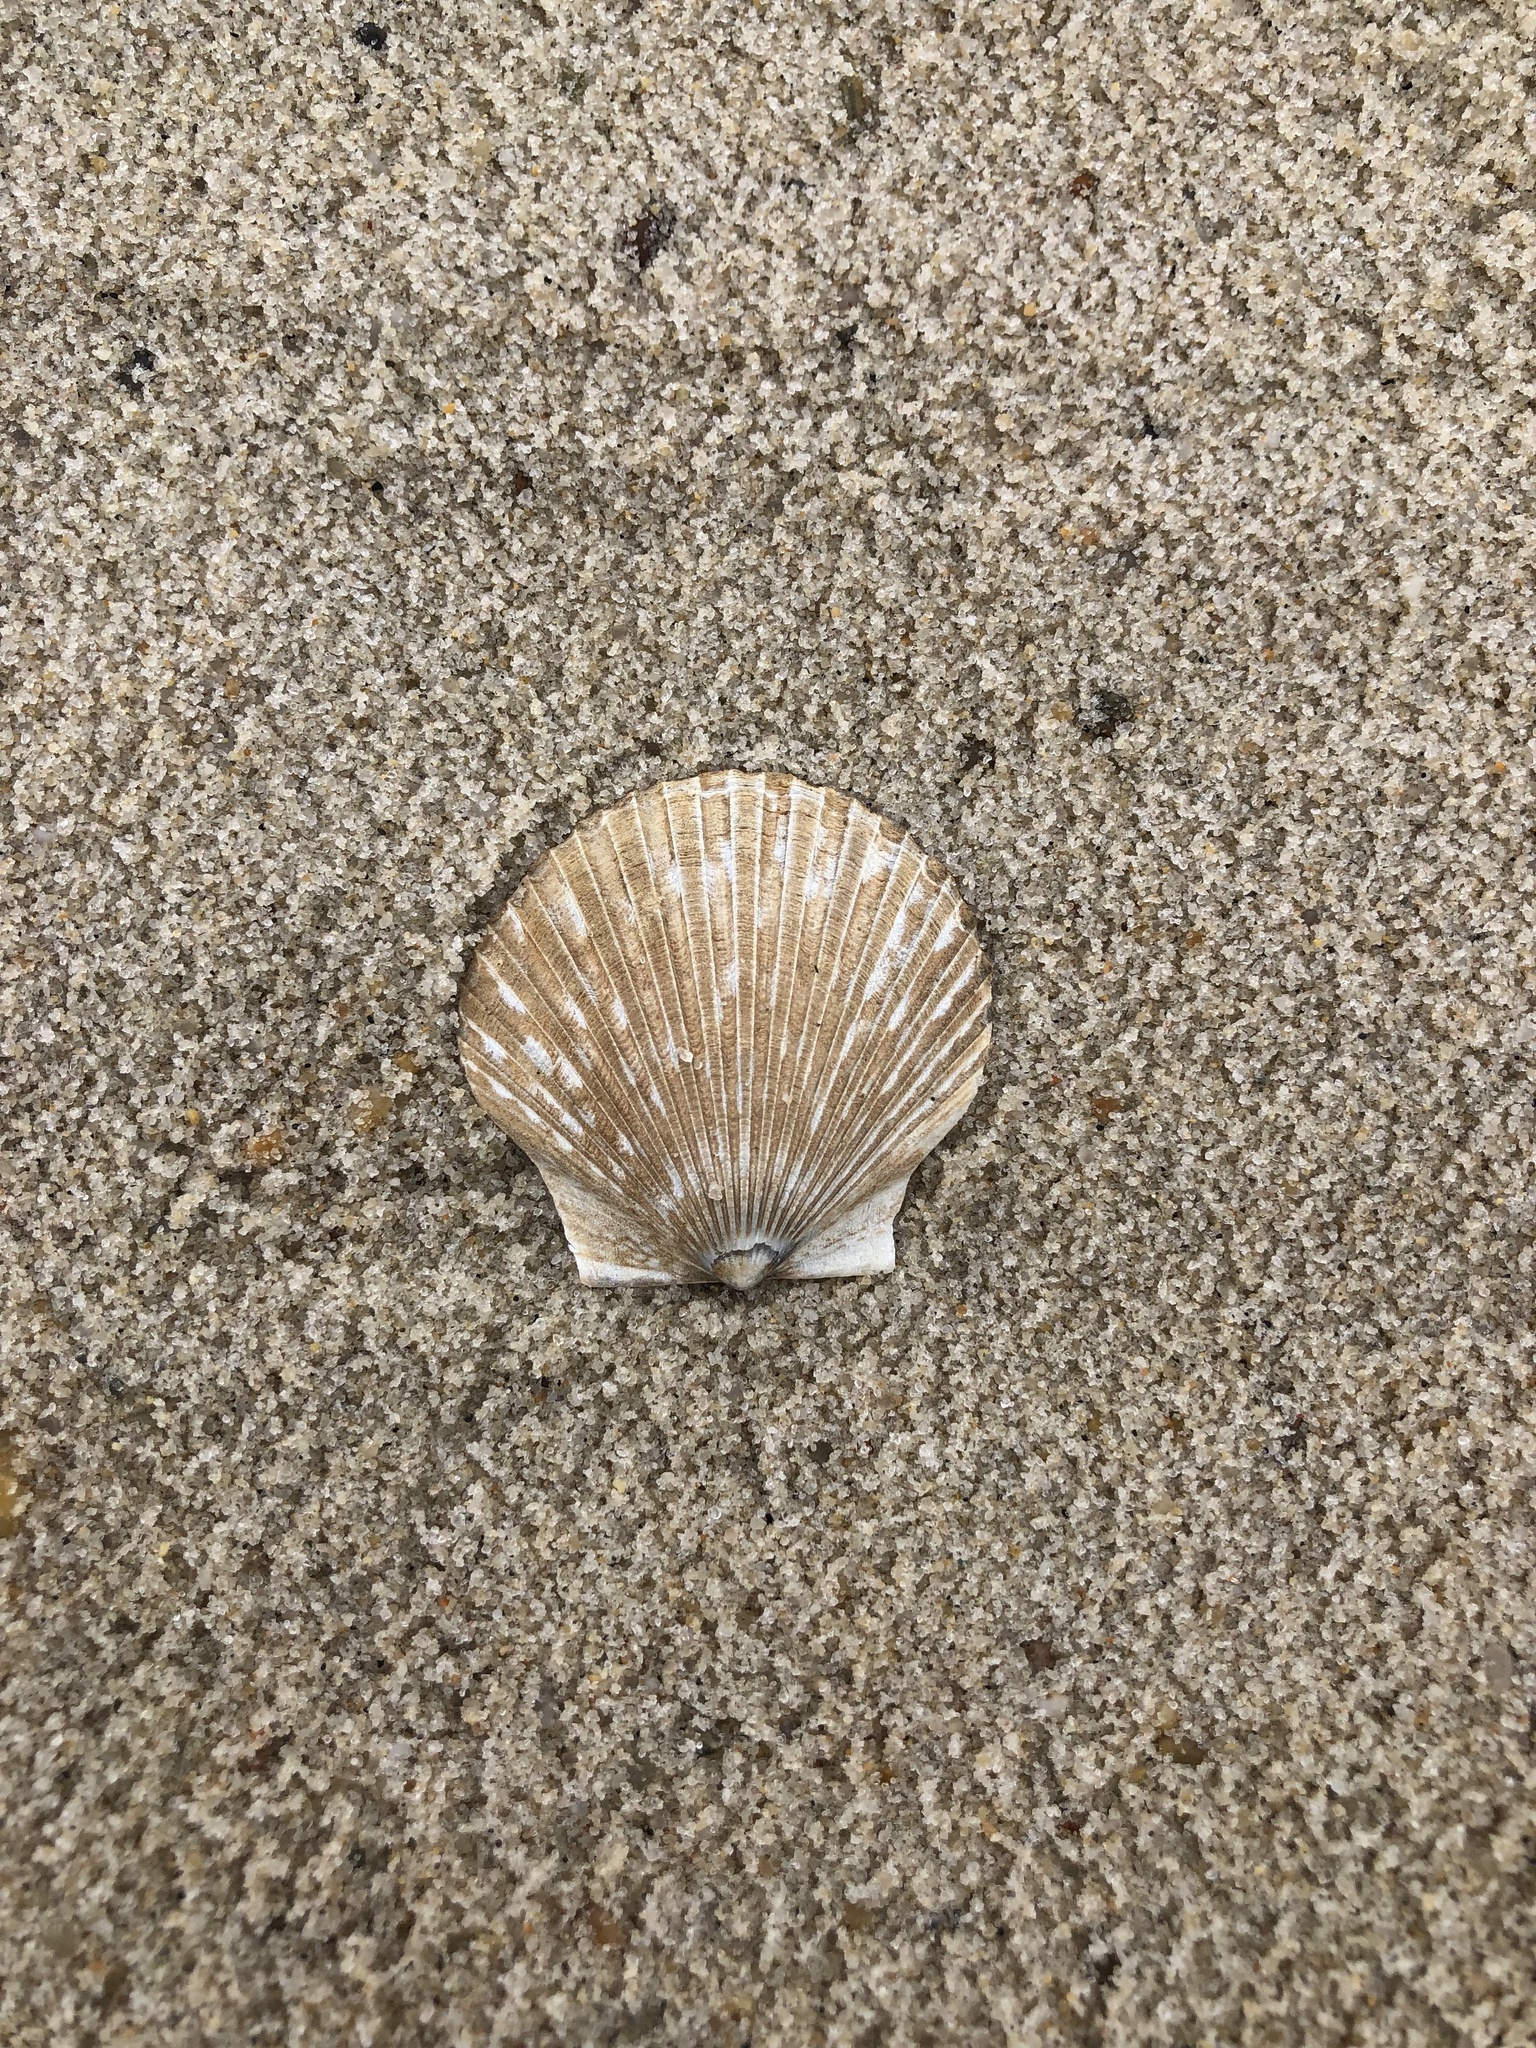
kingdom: Animalia
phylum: Mollusca
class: Bivalvia
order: Pectinida
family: Pectinidae
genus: Argopecten
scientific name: Argopecten irradians
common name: Atlantic bay scallop
